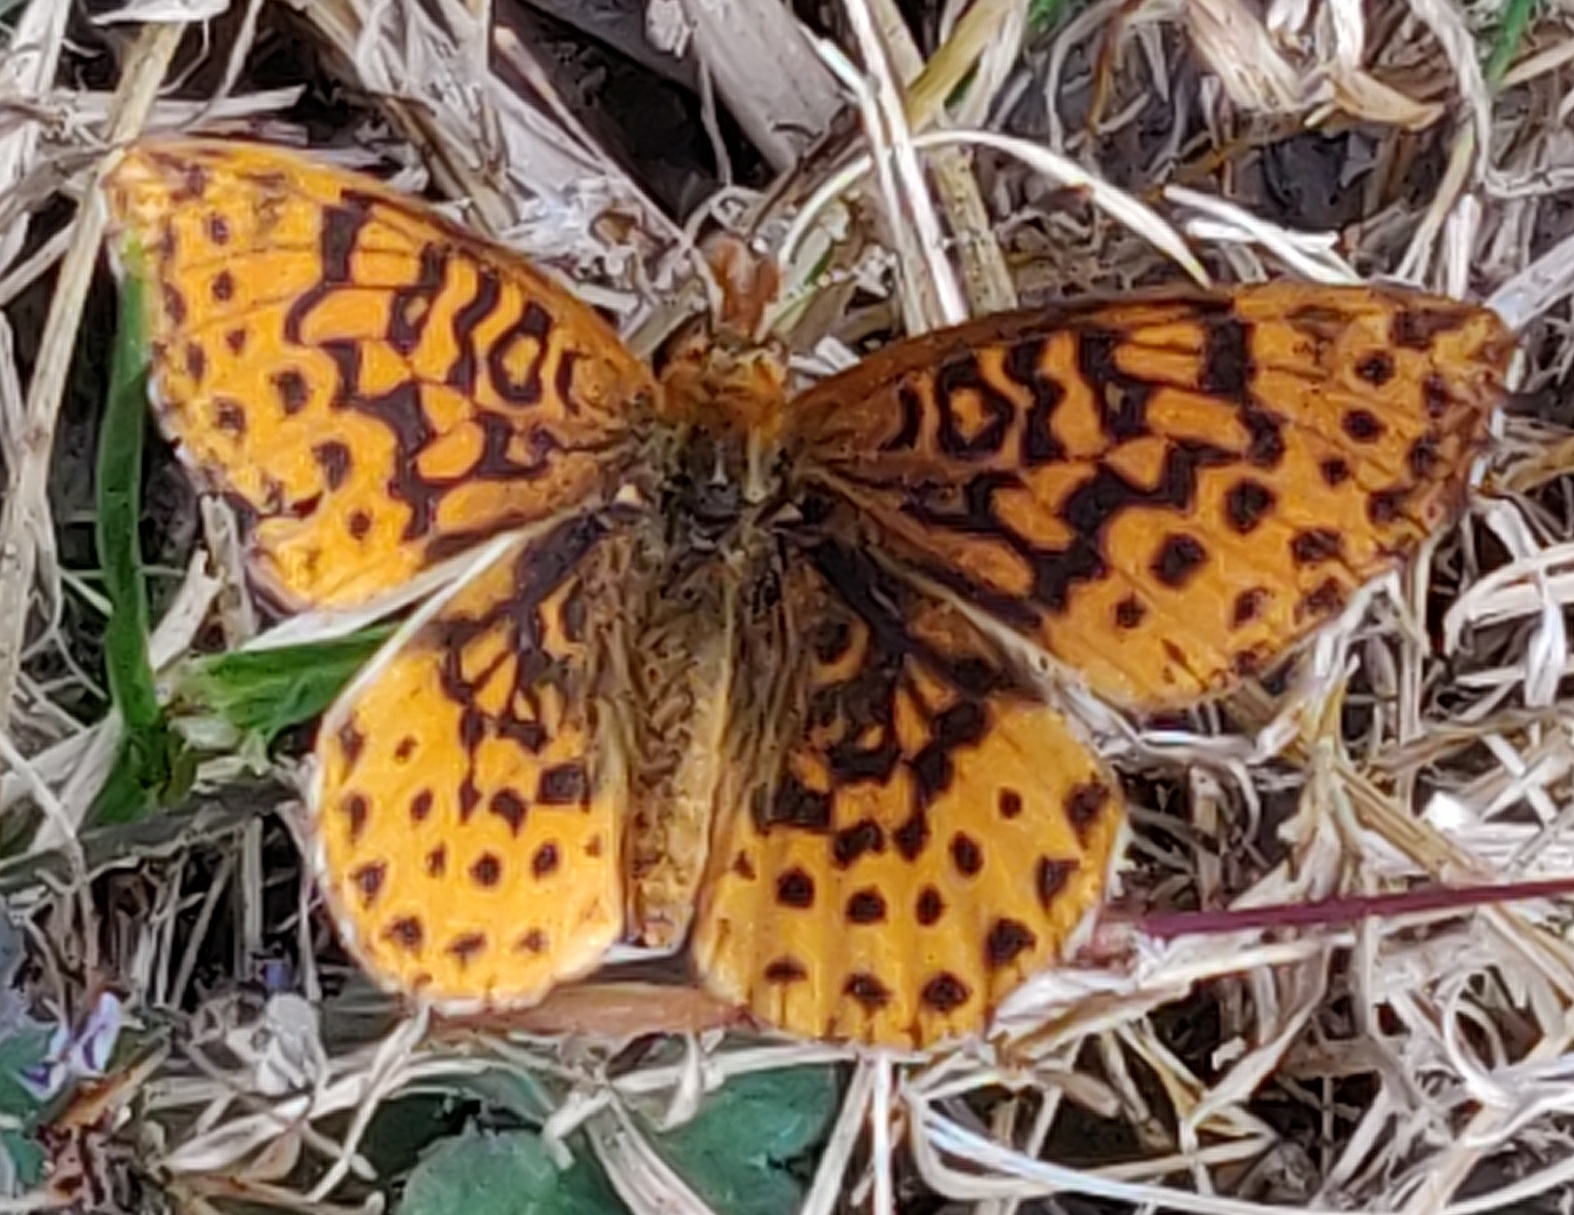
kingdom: Animalia
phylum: Arthropoda
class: Insecta
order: Lepidoptera
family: Nymphalidae
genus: Clossiana
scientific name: Clossiana toddi
